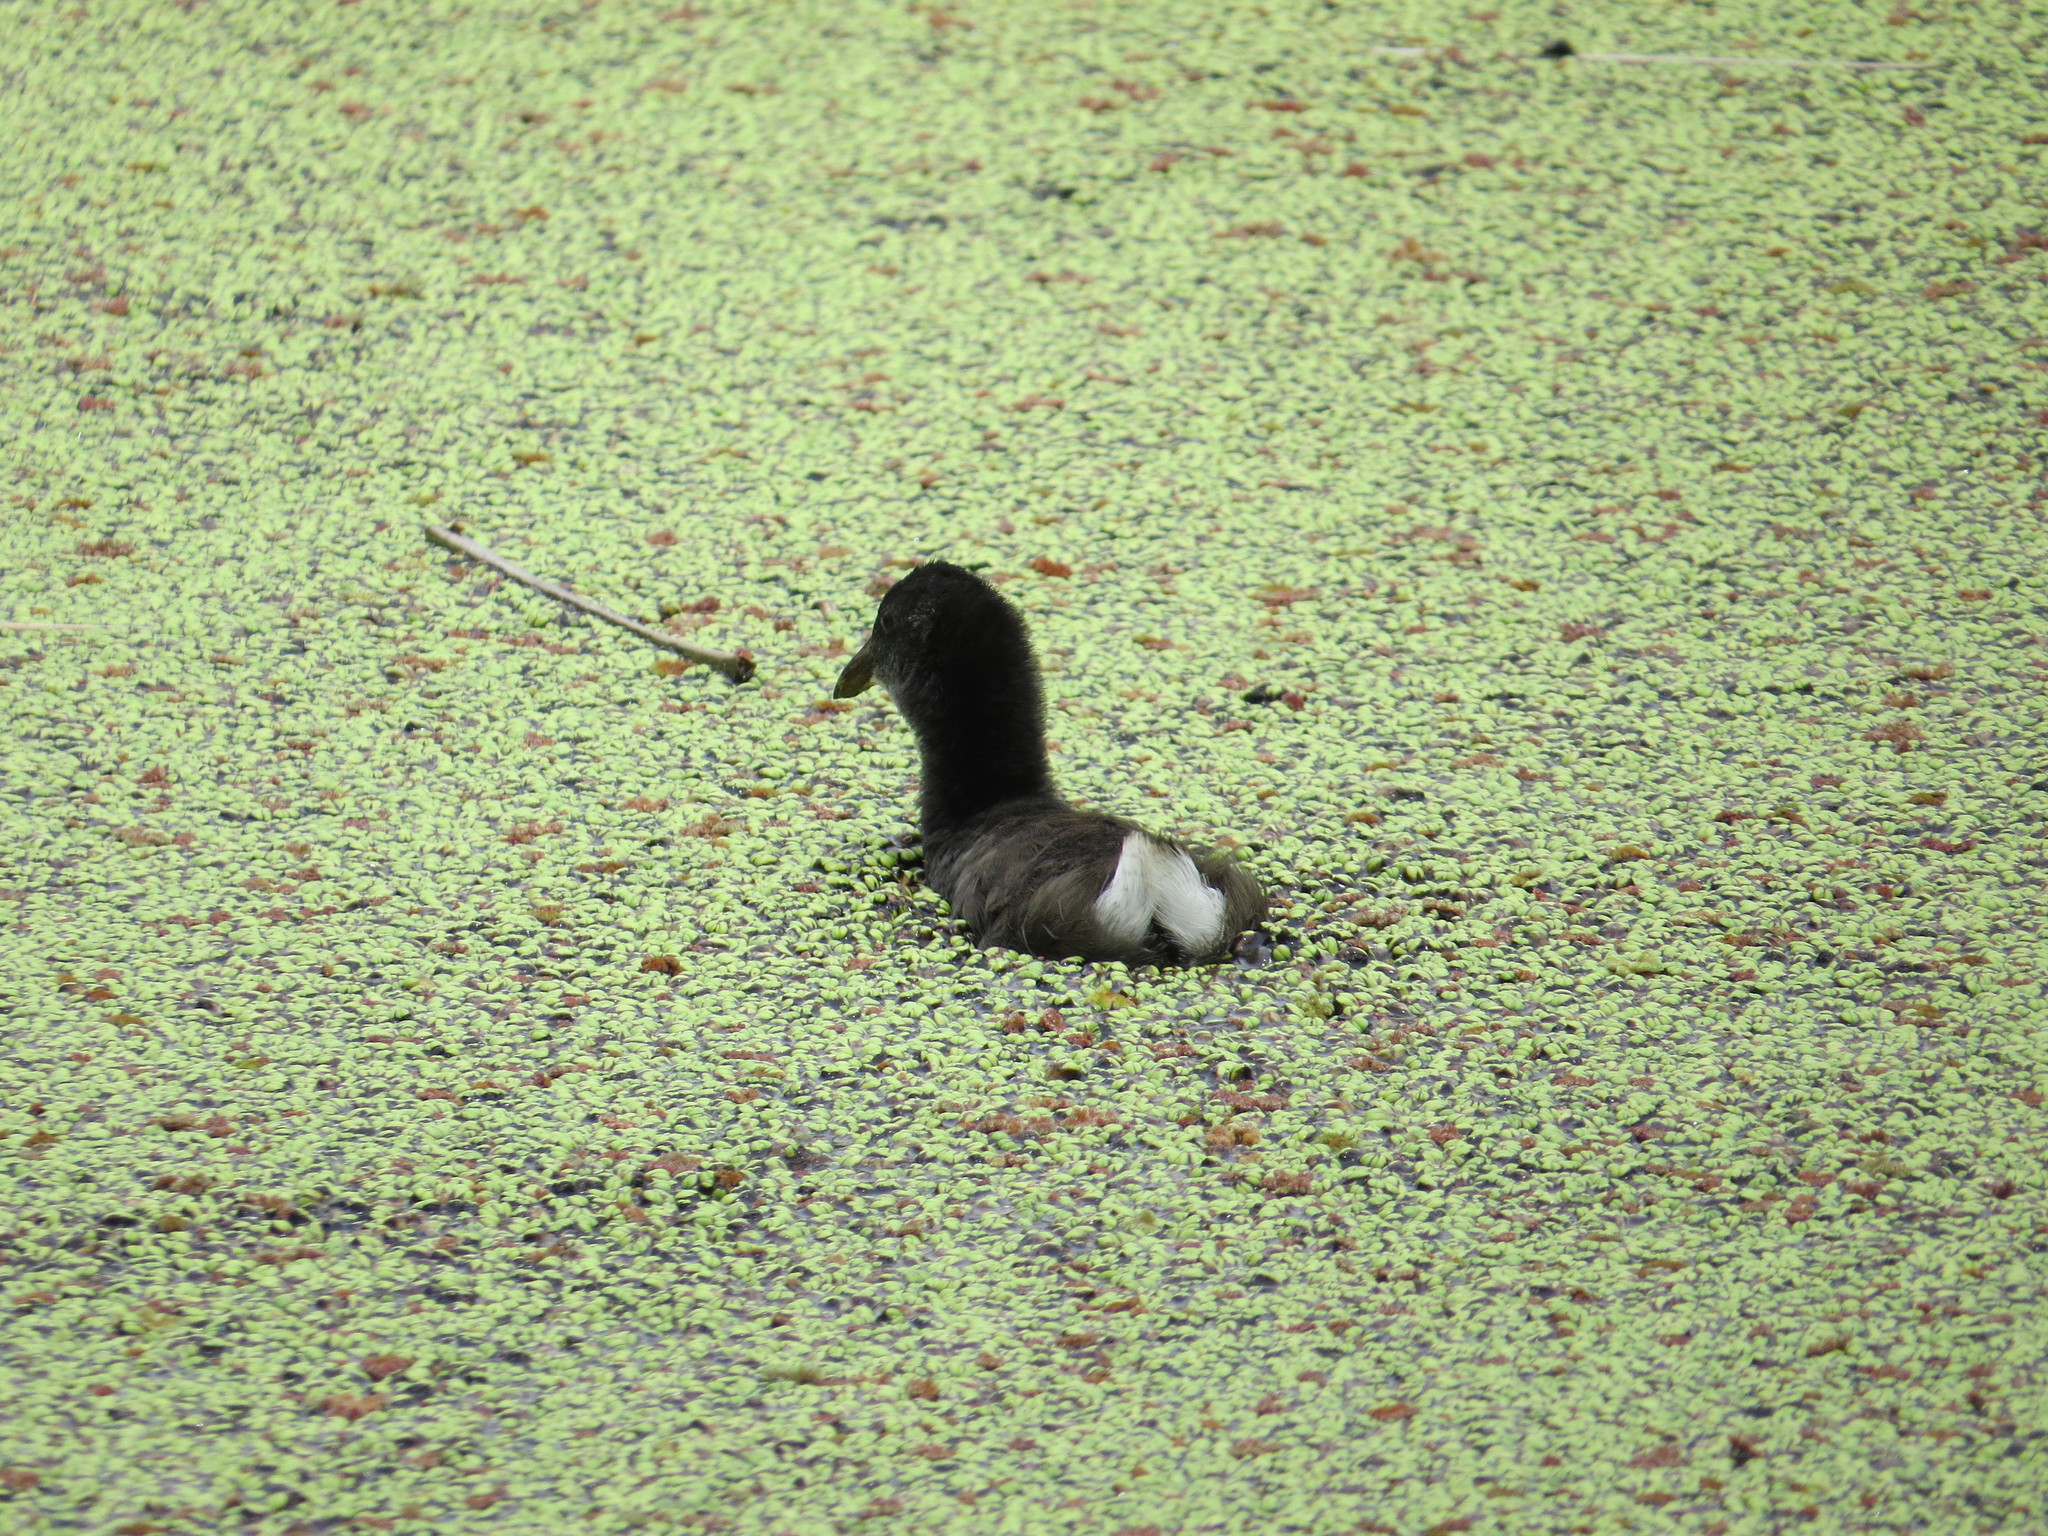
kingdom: Animalia
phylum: Chordata
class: Aves
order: Gruiformes
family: Rallidae
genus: Gallinula
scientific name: Gallinula chloropus
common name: Common moorhen
